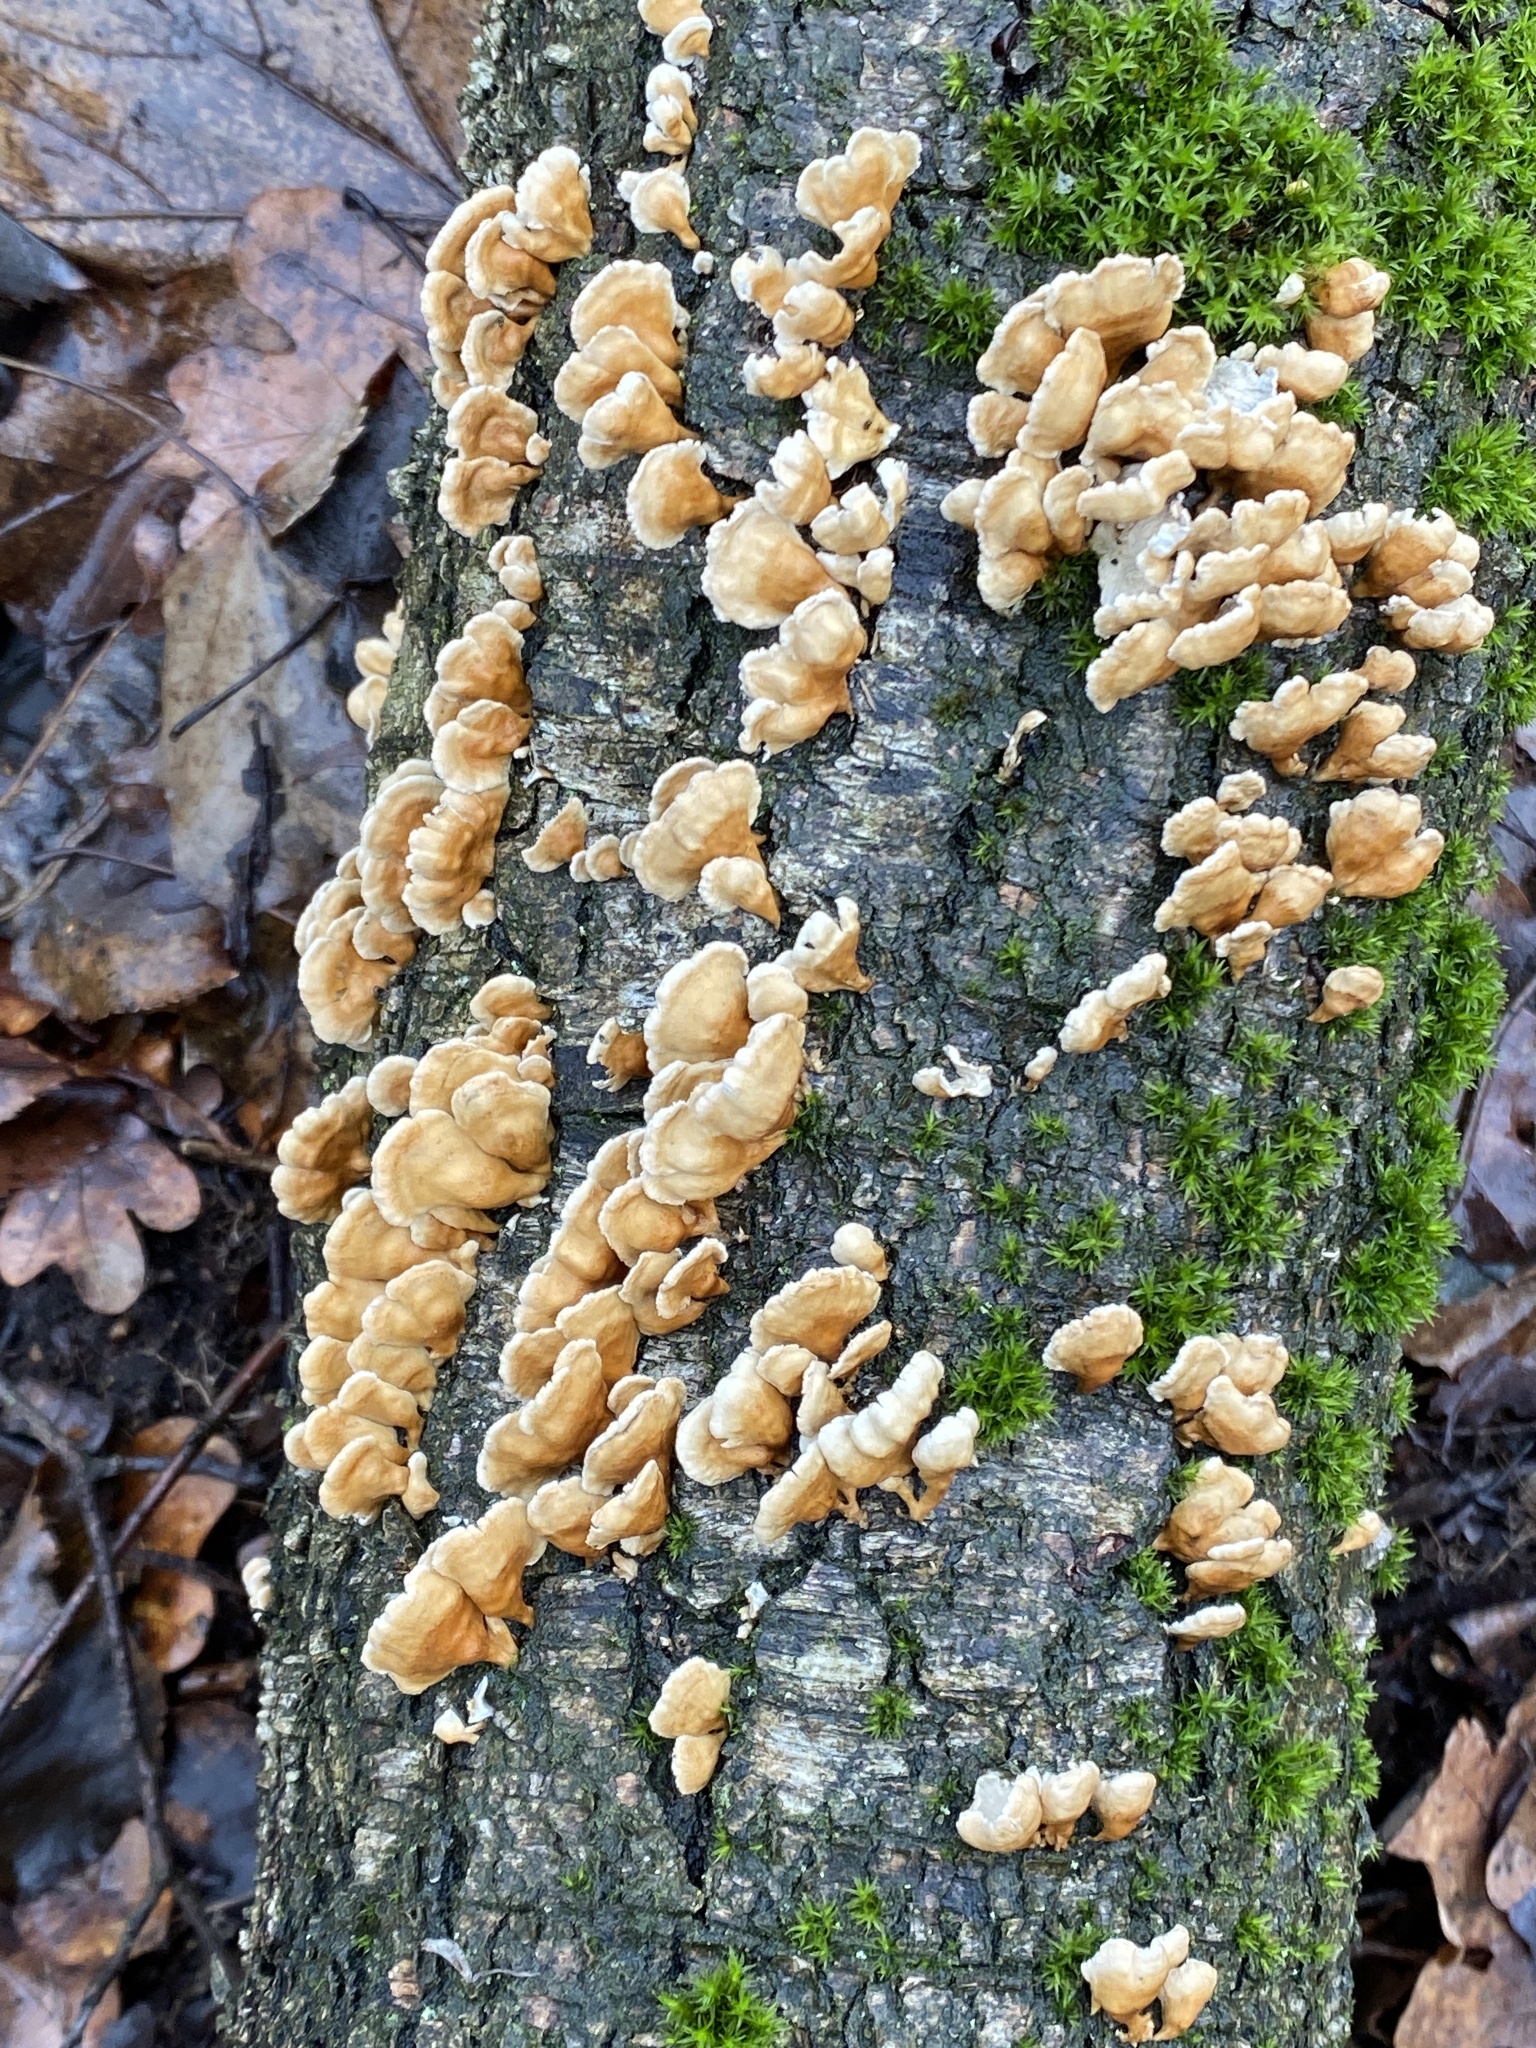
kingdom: Fungi
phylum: Basidiomycota
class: Agaricomycetes
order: Amylocorticiales
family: Amylocorticiaceae
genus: Plicaturopsis
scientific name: Plicaturopsis crispa
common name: Crimped gill
